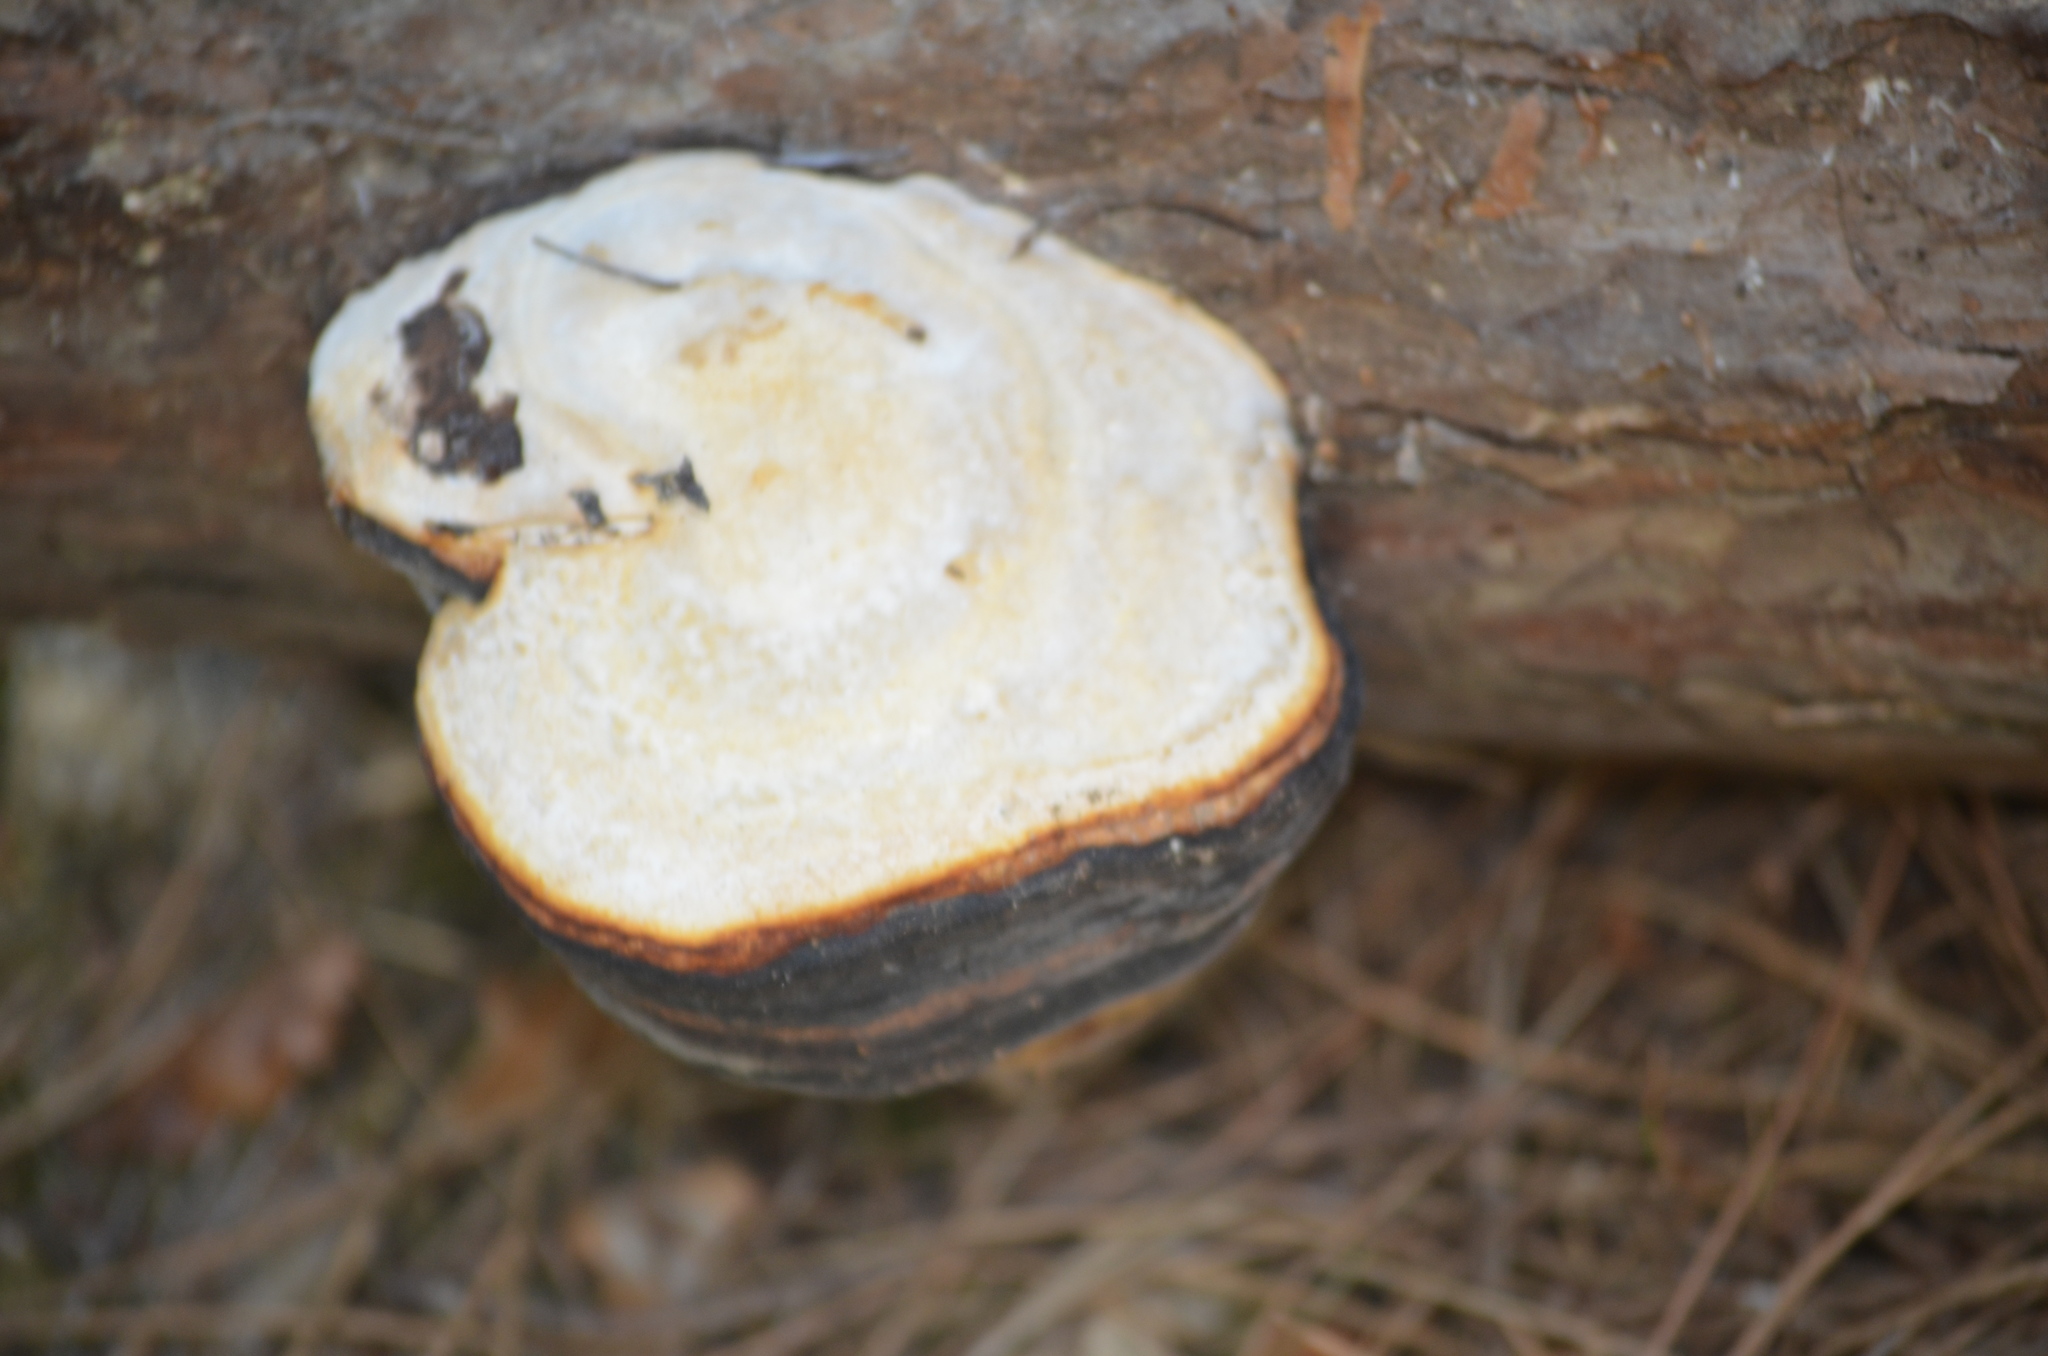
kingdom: Fungi
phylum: Basidiomycota
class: Agaricomycetes
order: Polyporales
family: Fomitopsidaceae
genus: Fomitopsis
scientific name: Fomitopsis pinicola
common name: Red-belted bracket
